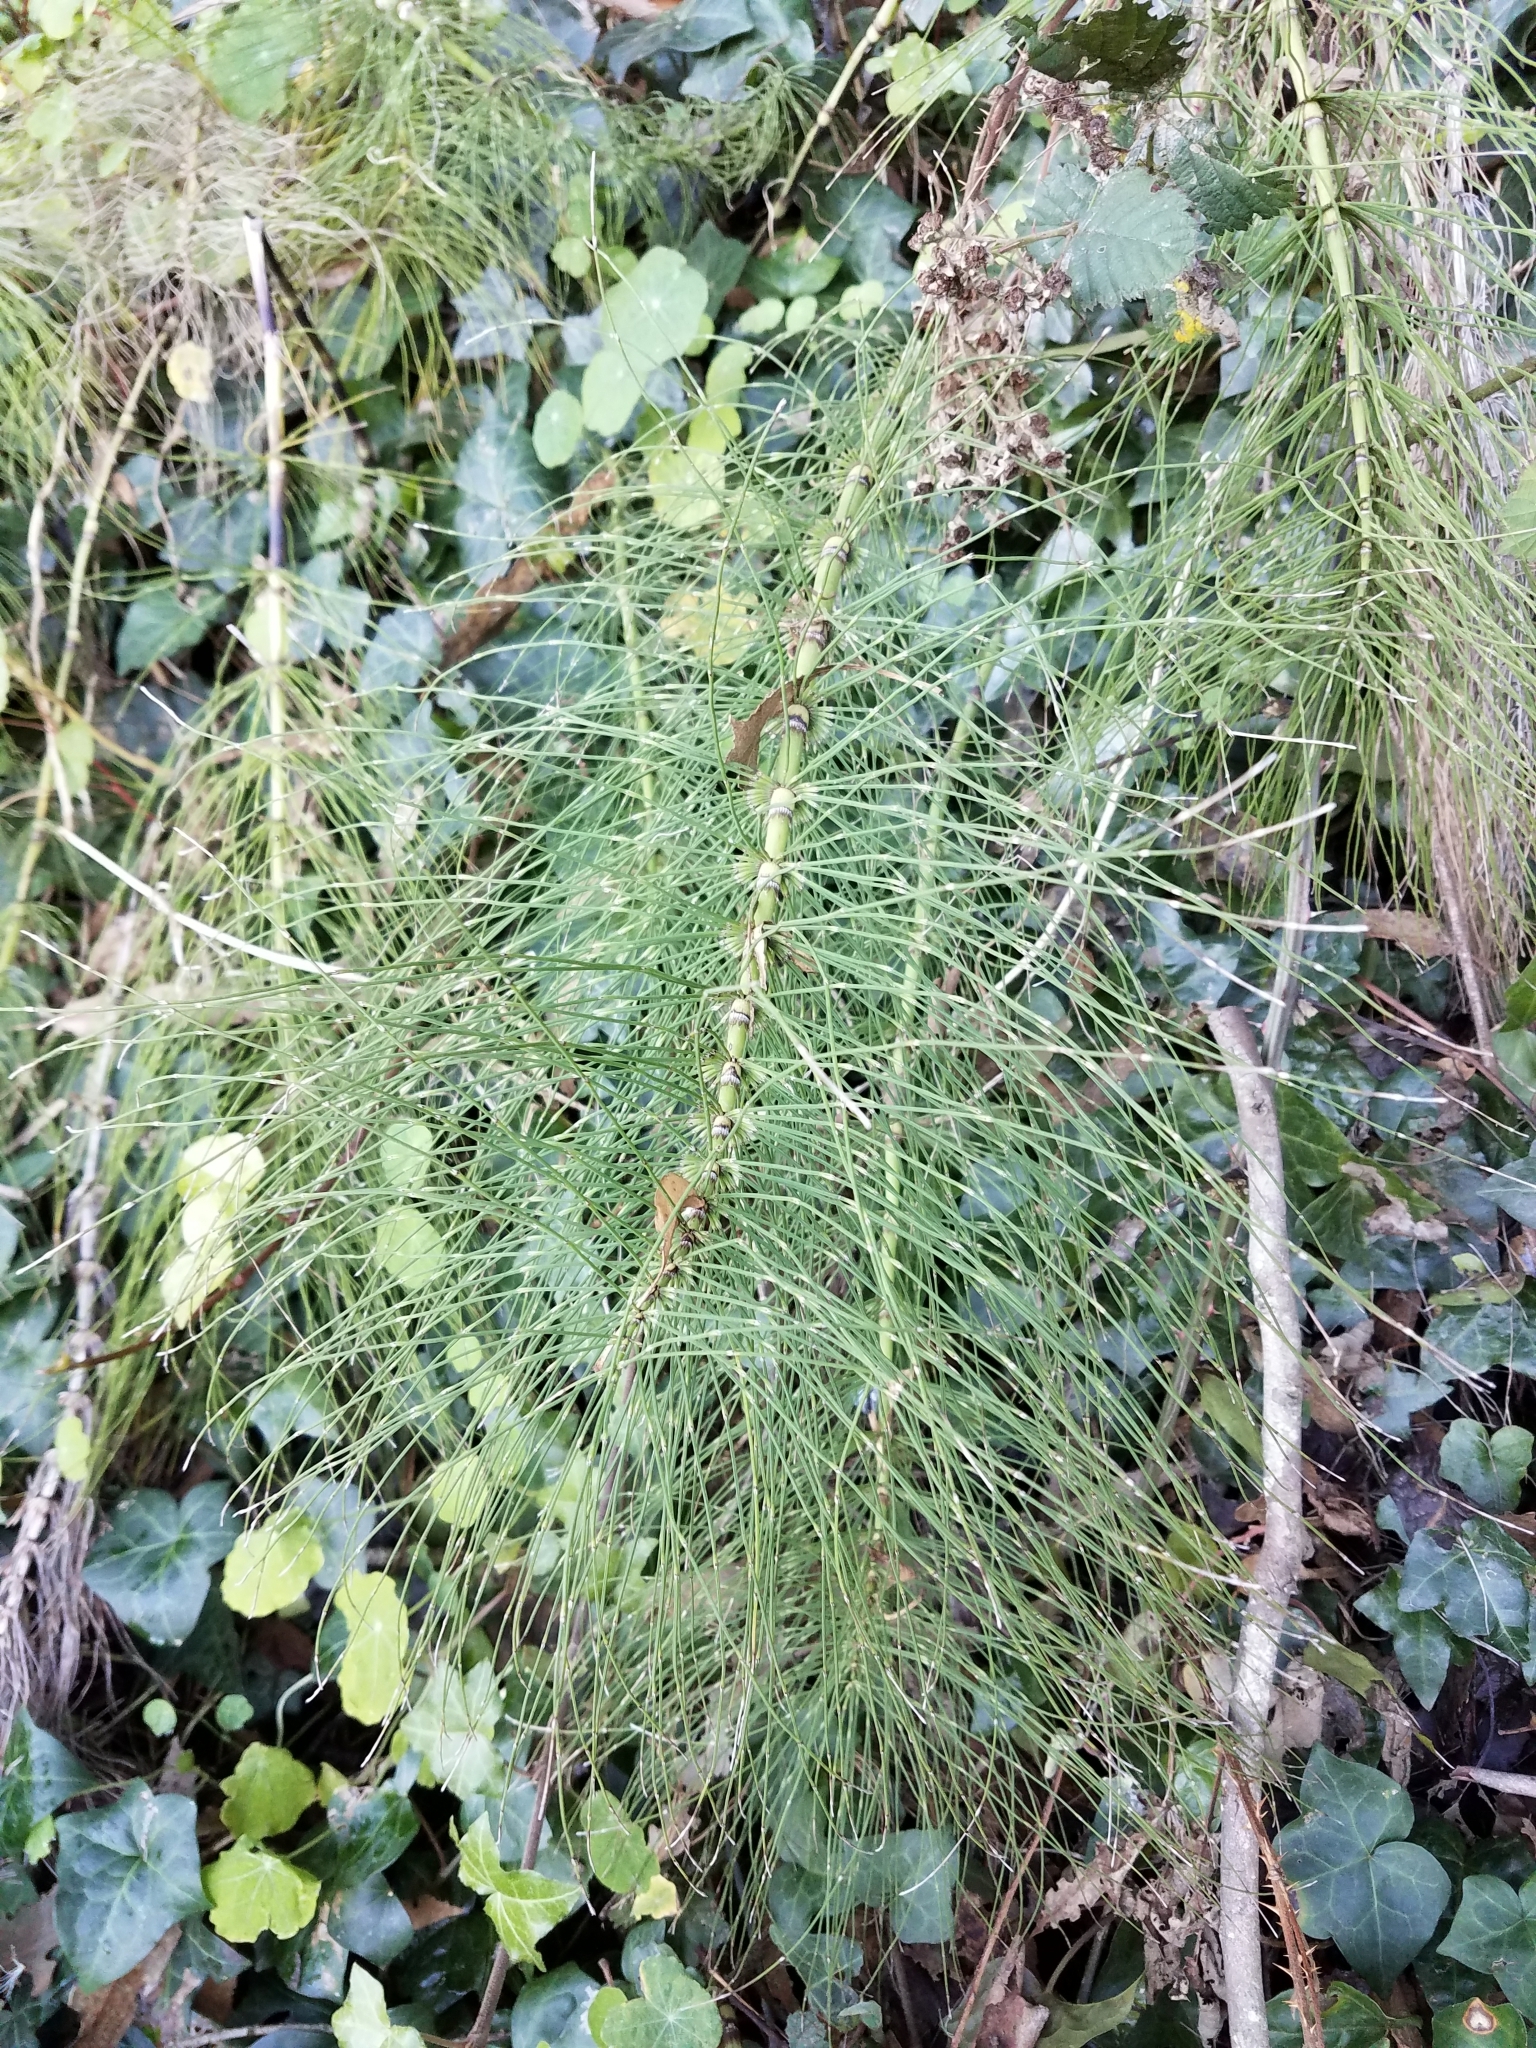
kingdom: Plantae
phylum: Tracheophyta
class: Polypodiopsida
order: Equisetales
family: Equisetaceae
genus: Equisetum
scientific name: Equisetum telmateia
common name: Great horsetail
